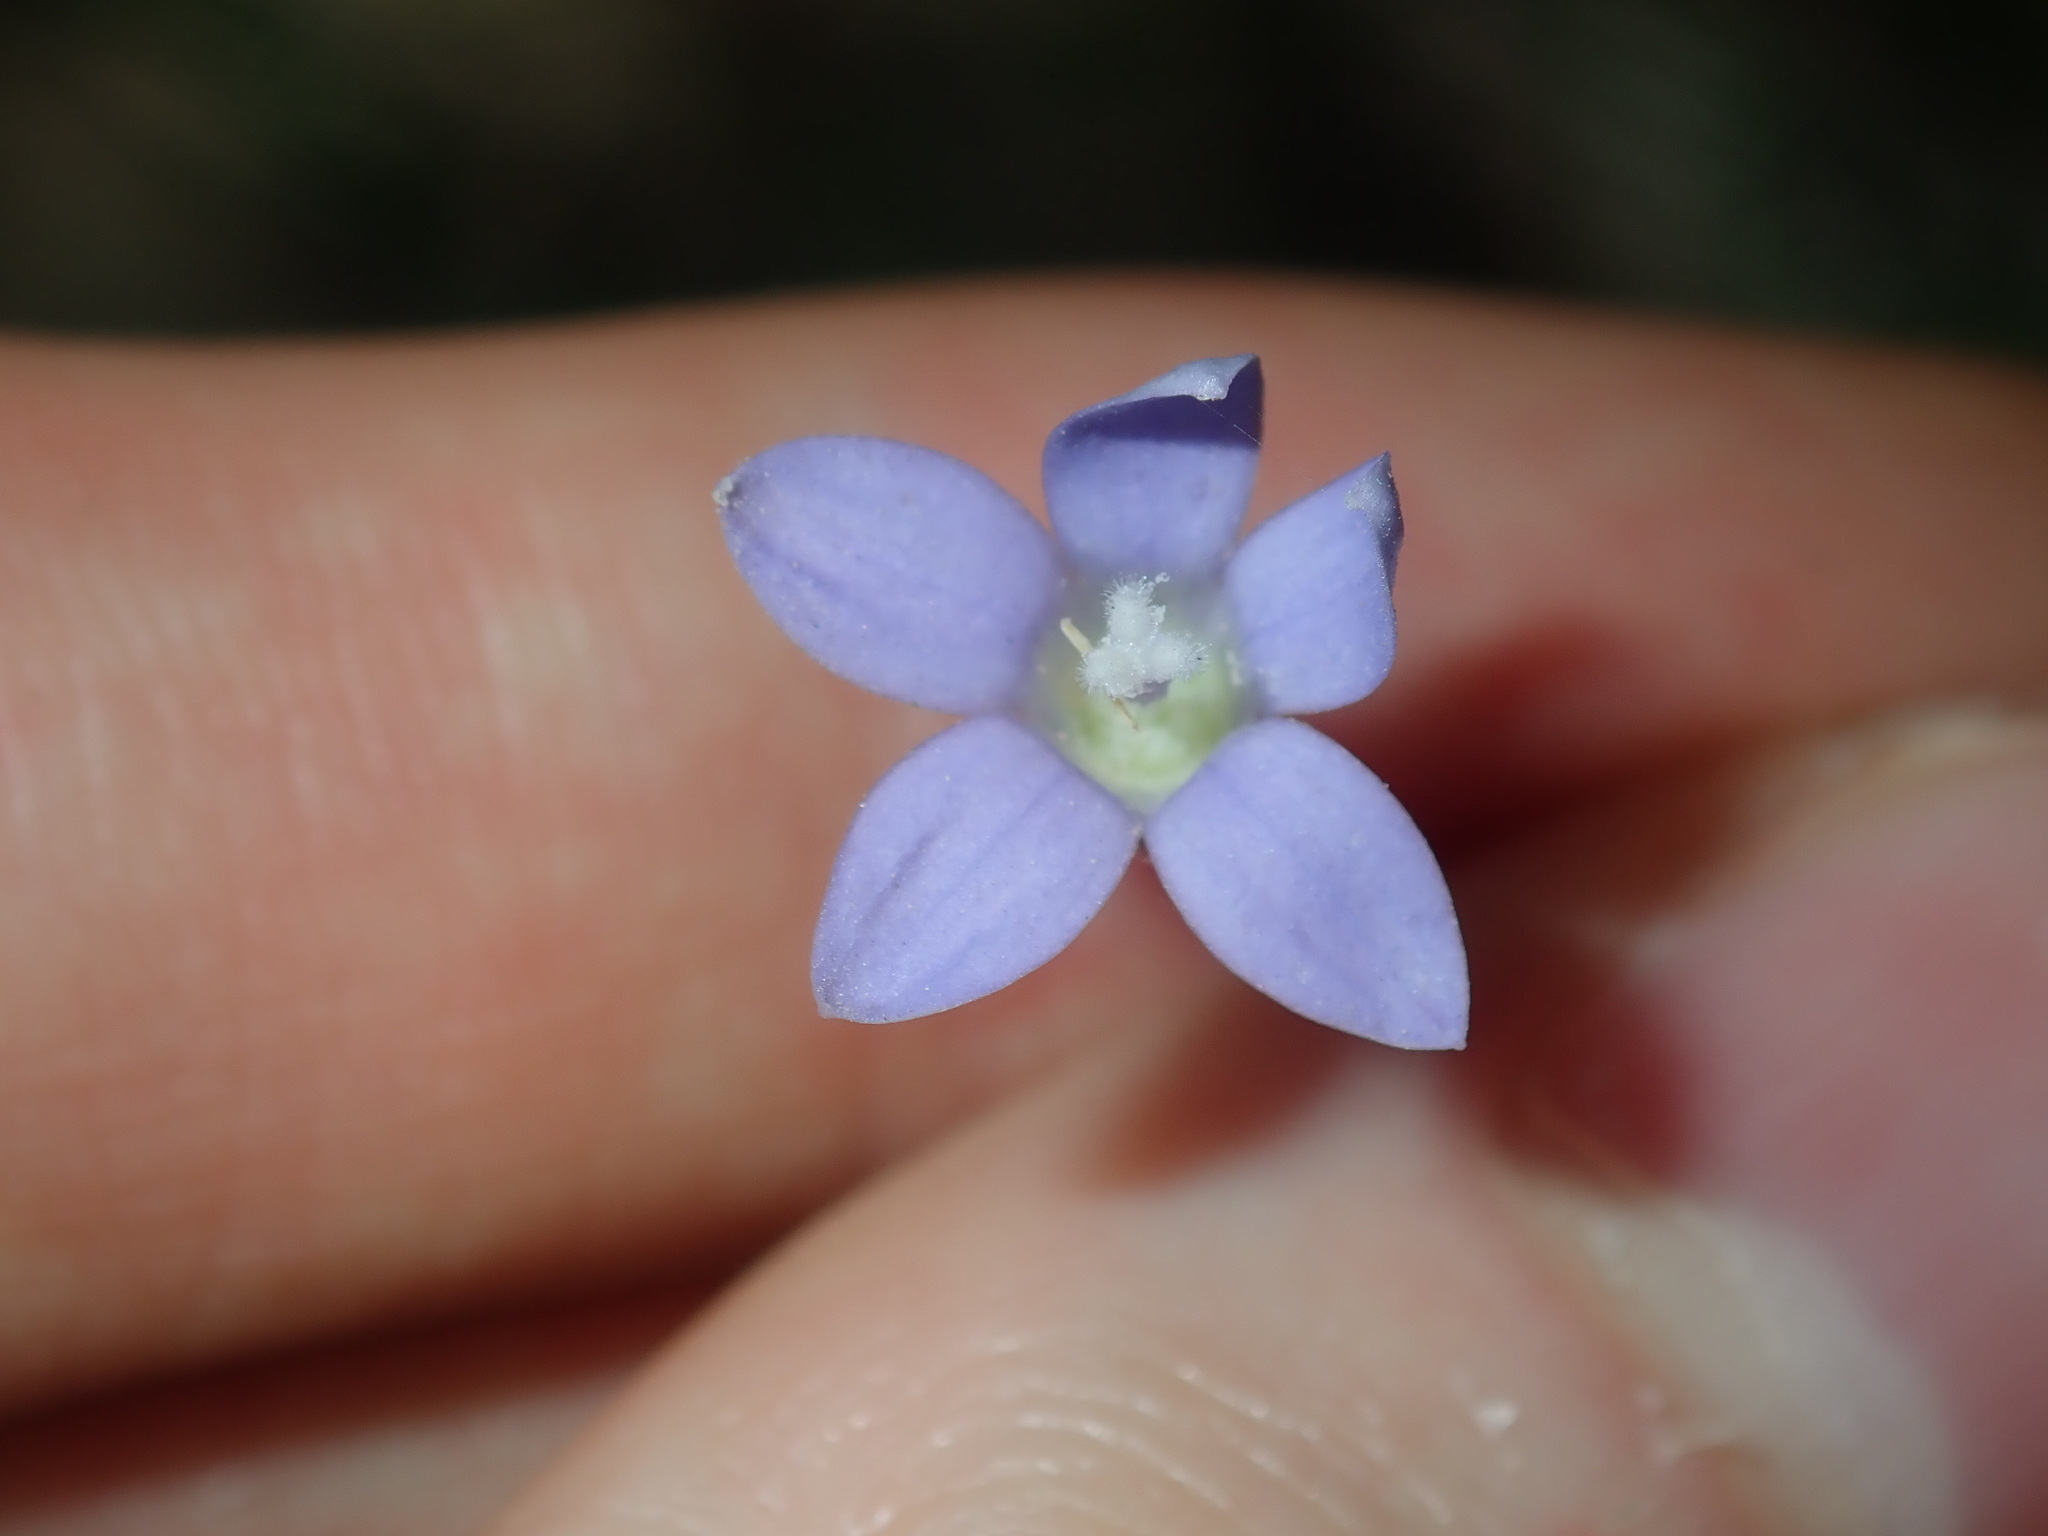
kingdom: Plantae
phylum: Tracheophyta
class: Magnoliopsida
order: Asterales
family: Campanulaceae
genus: Wahlenbergia
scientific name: Wahlenbergia stricta
